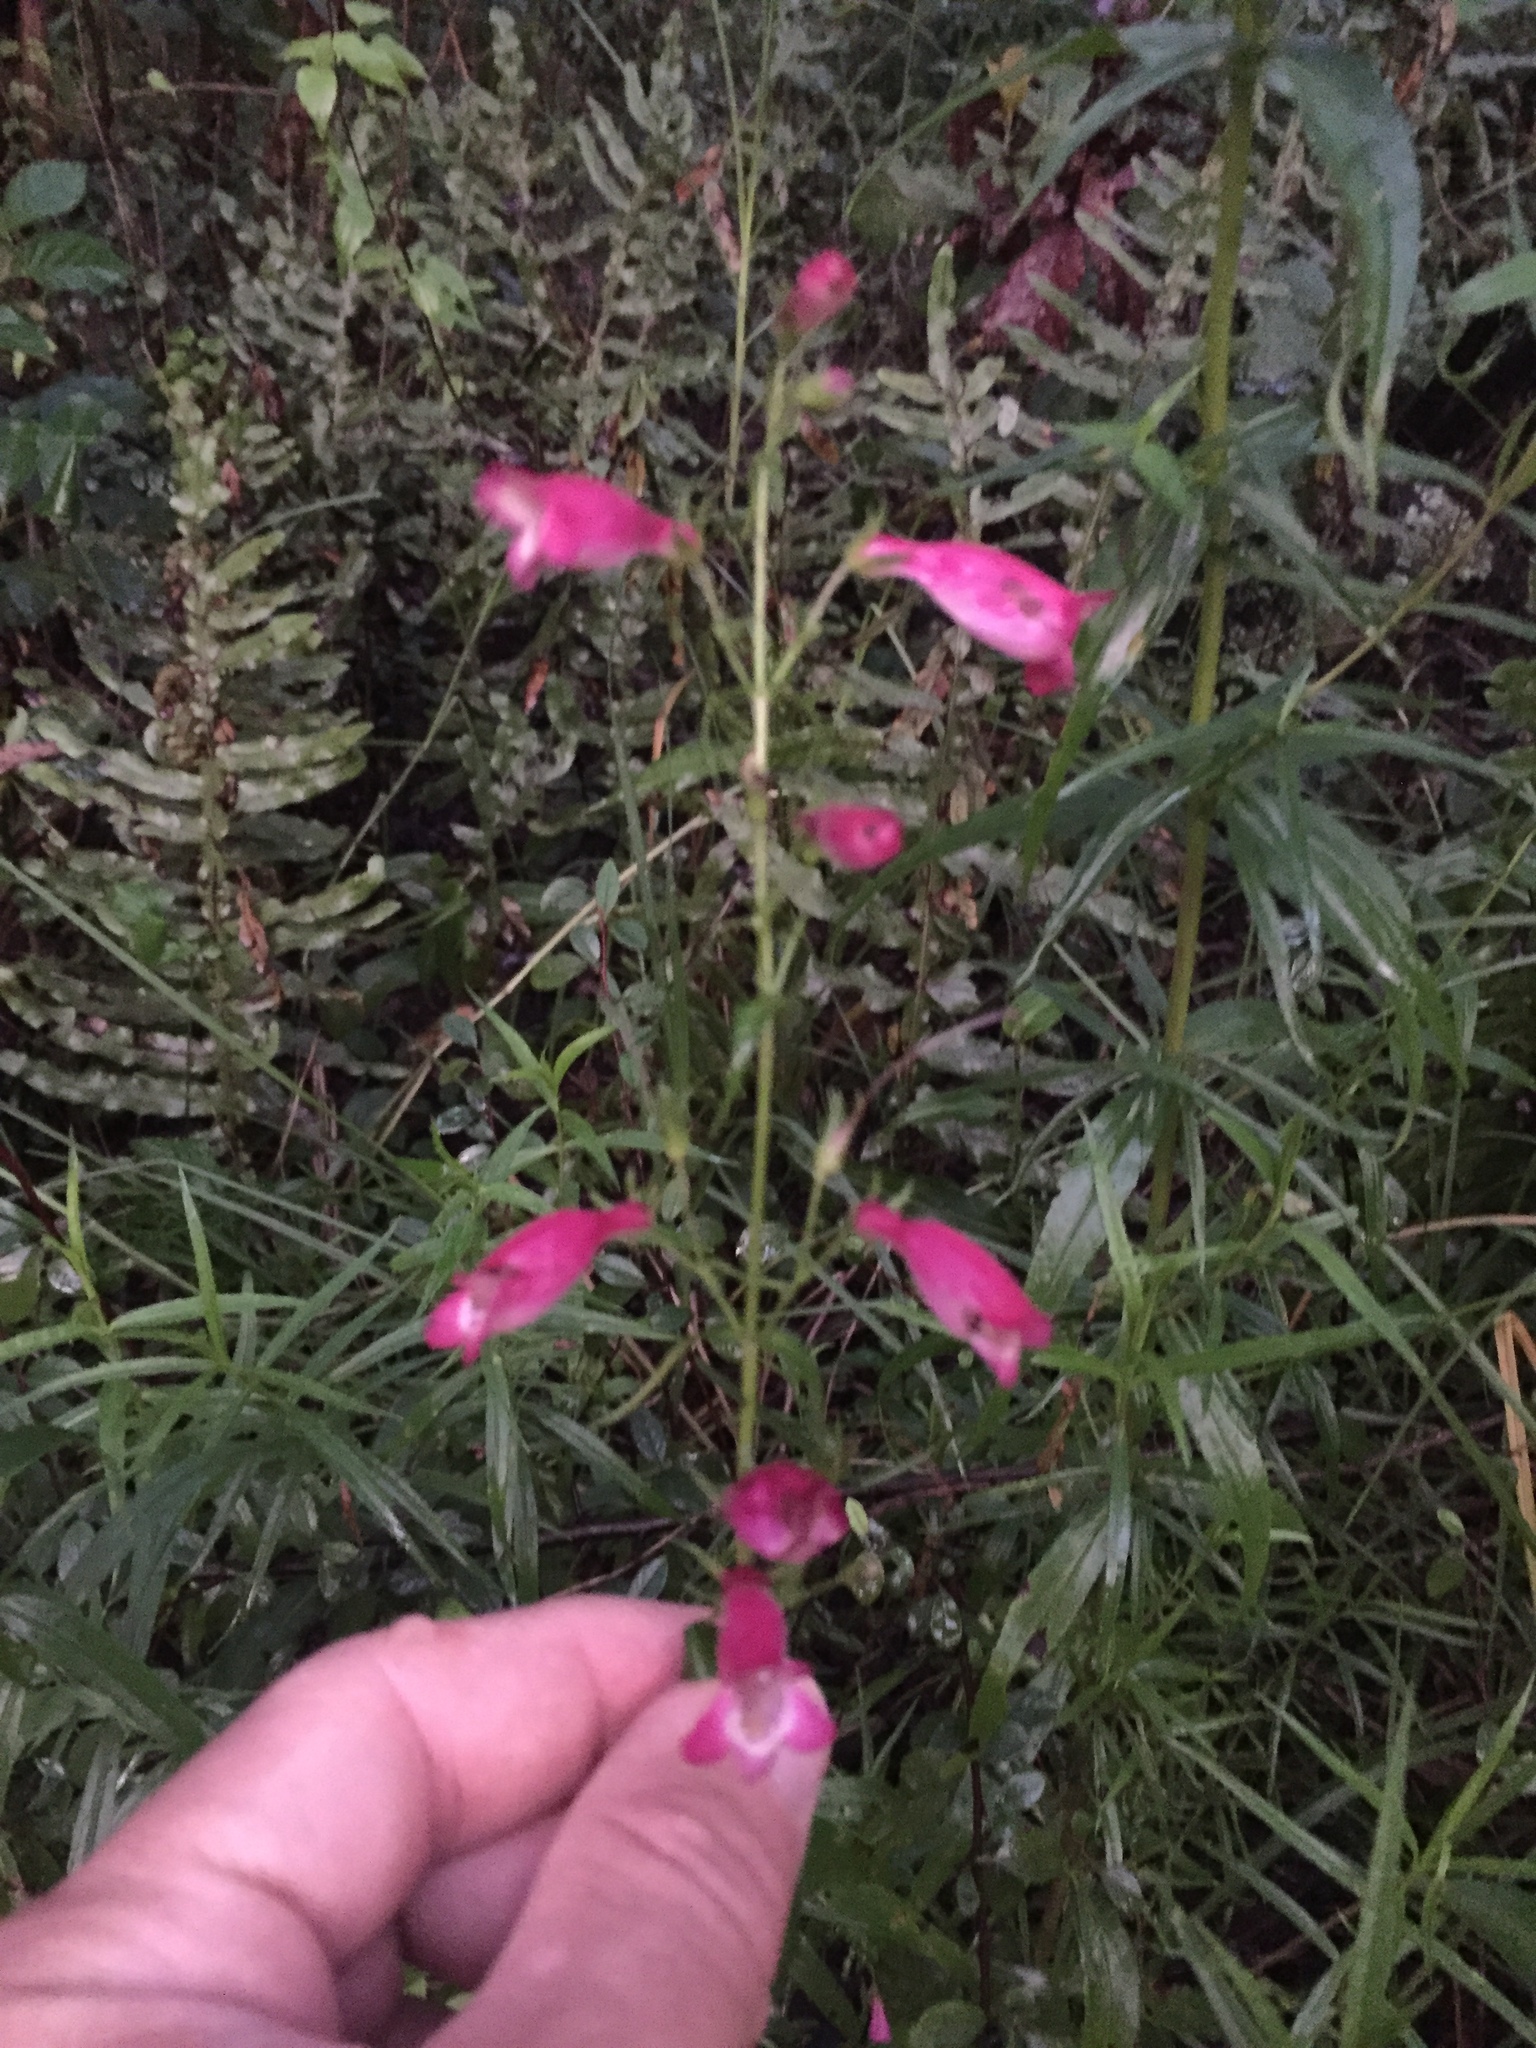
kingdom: Plantae
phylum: Tracheophyta
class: Magnoliopsida
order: Lamiales
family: Plantaginaceae
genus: Penstemon
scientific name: Penstemon roseus
